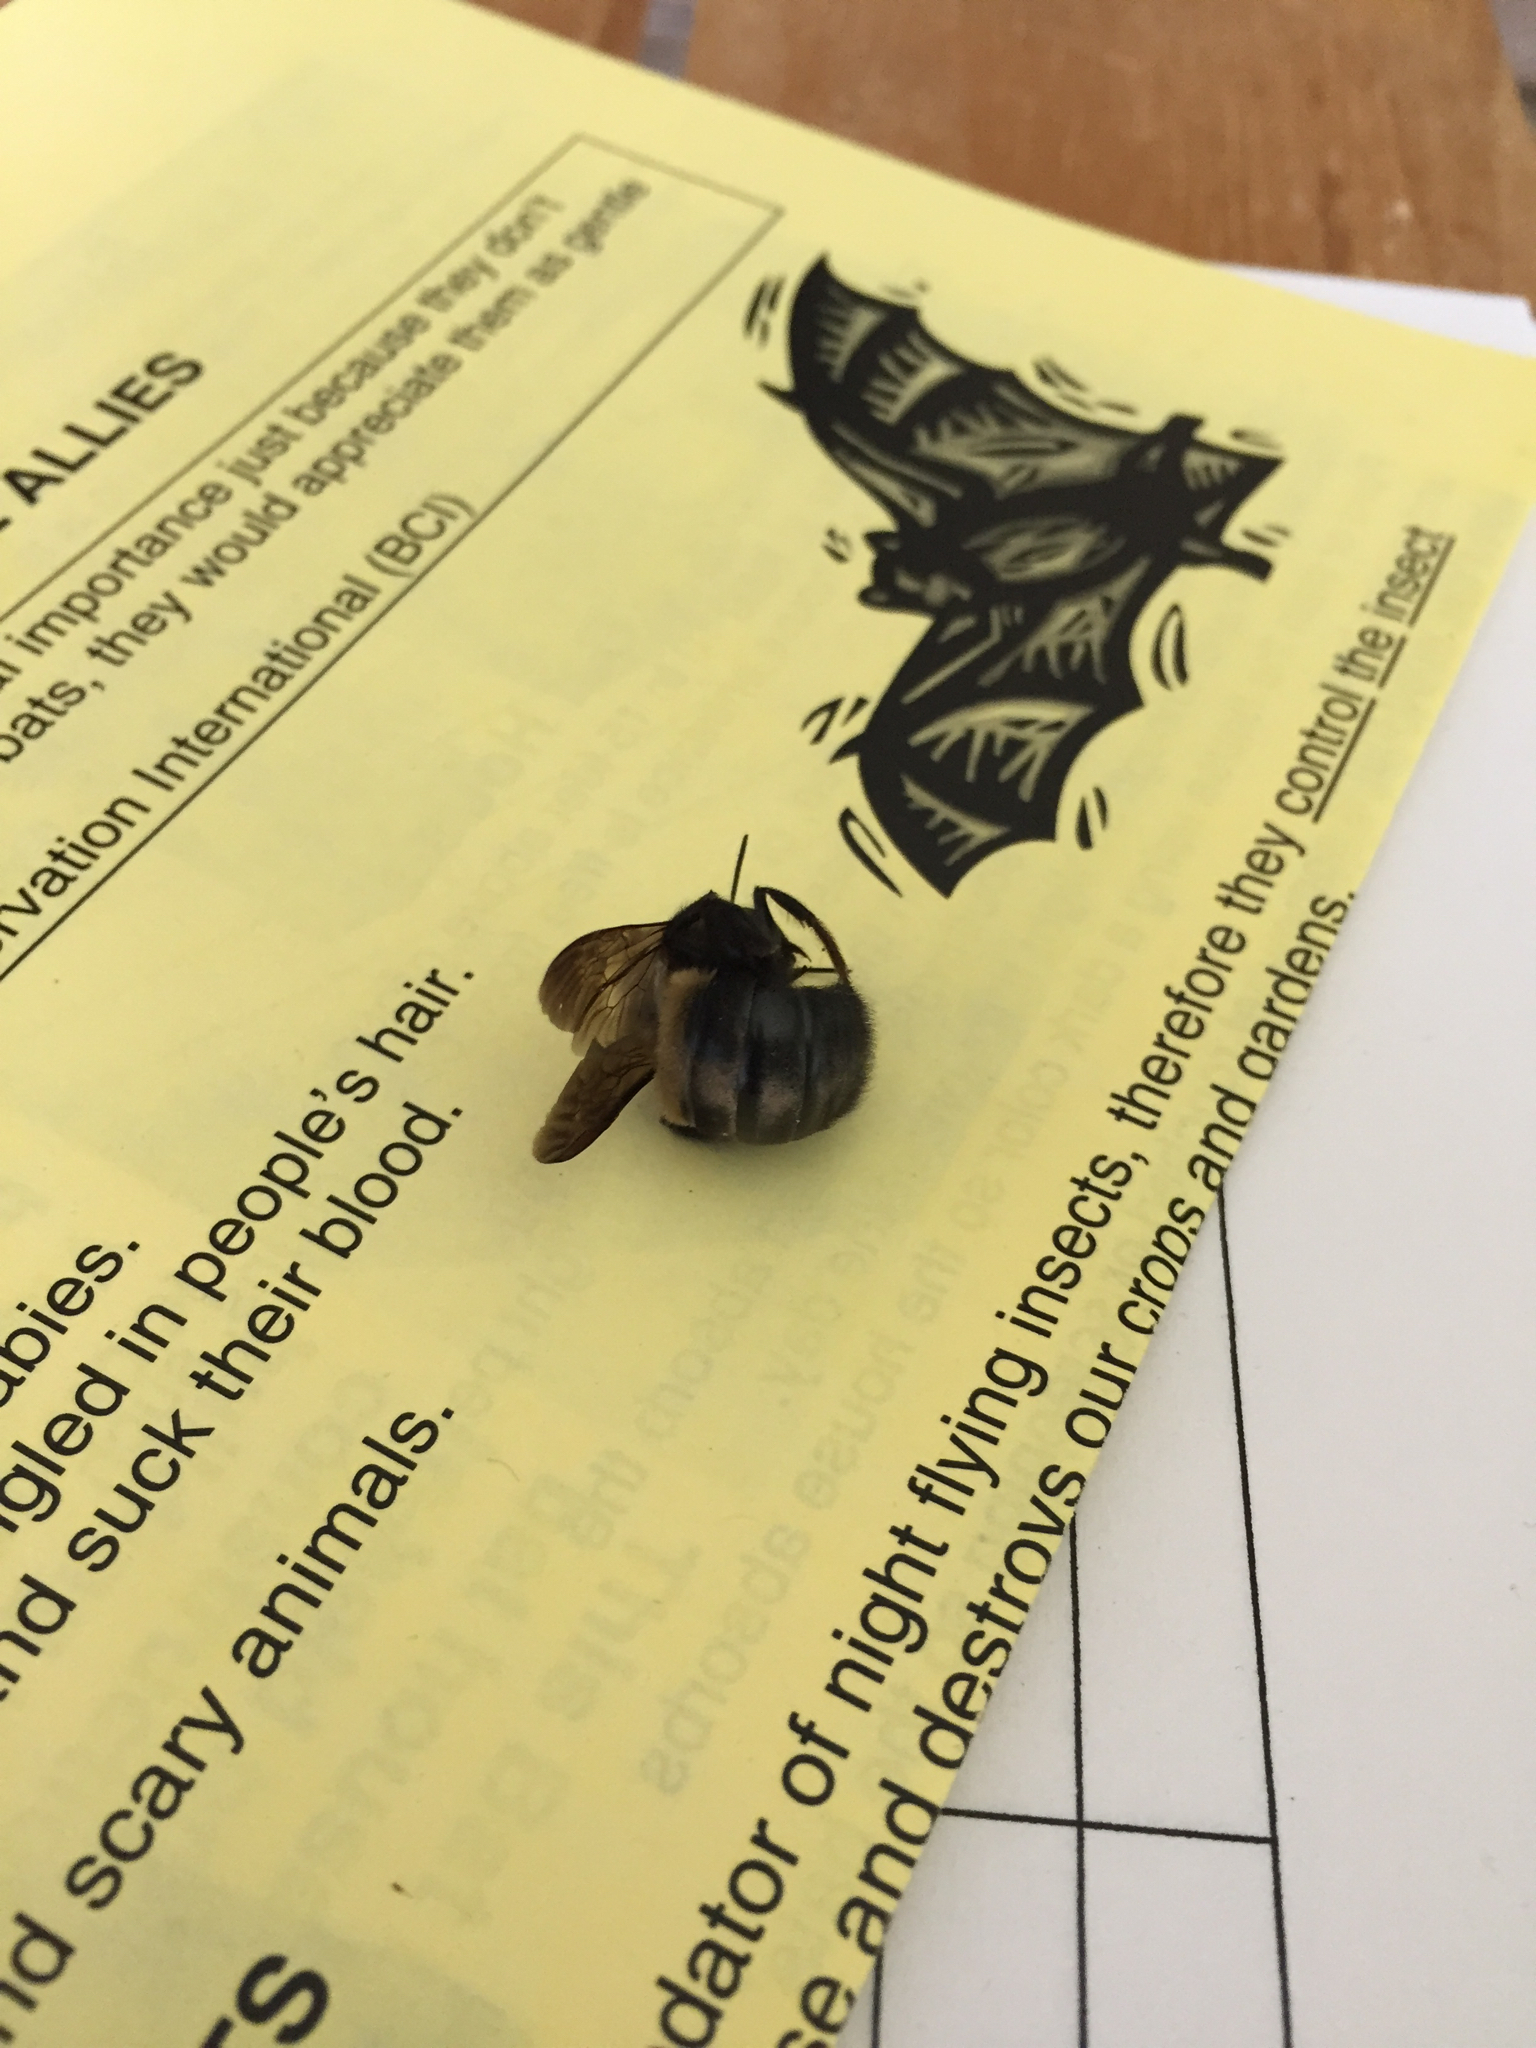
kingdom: Animalia
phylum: Arthropoda
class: Insecta
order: Hymenoptera
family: Apidae
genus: Xylocopa
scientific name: Xylocopa virginica
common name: Carpenter bee
